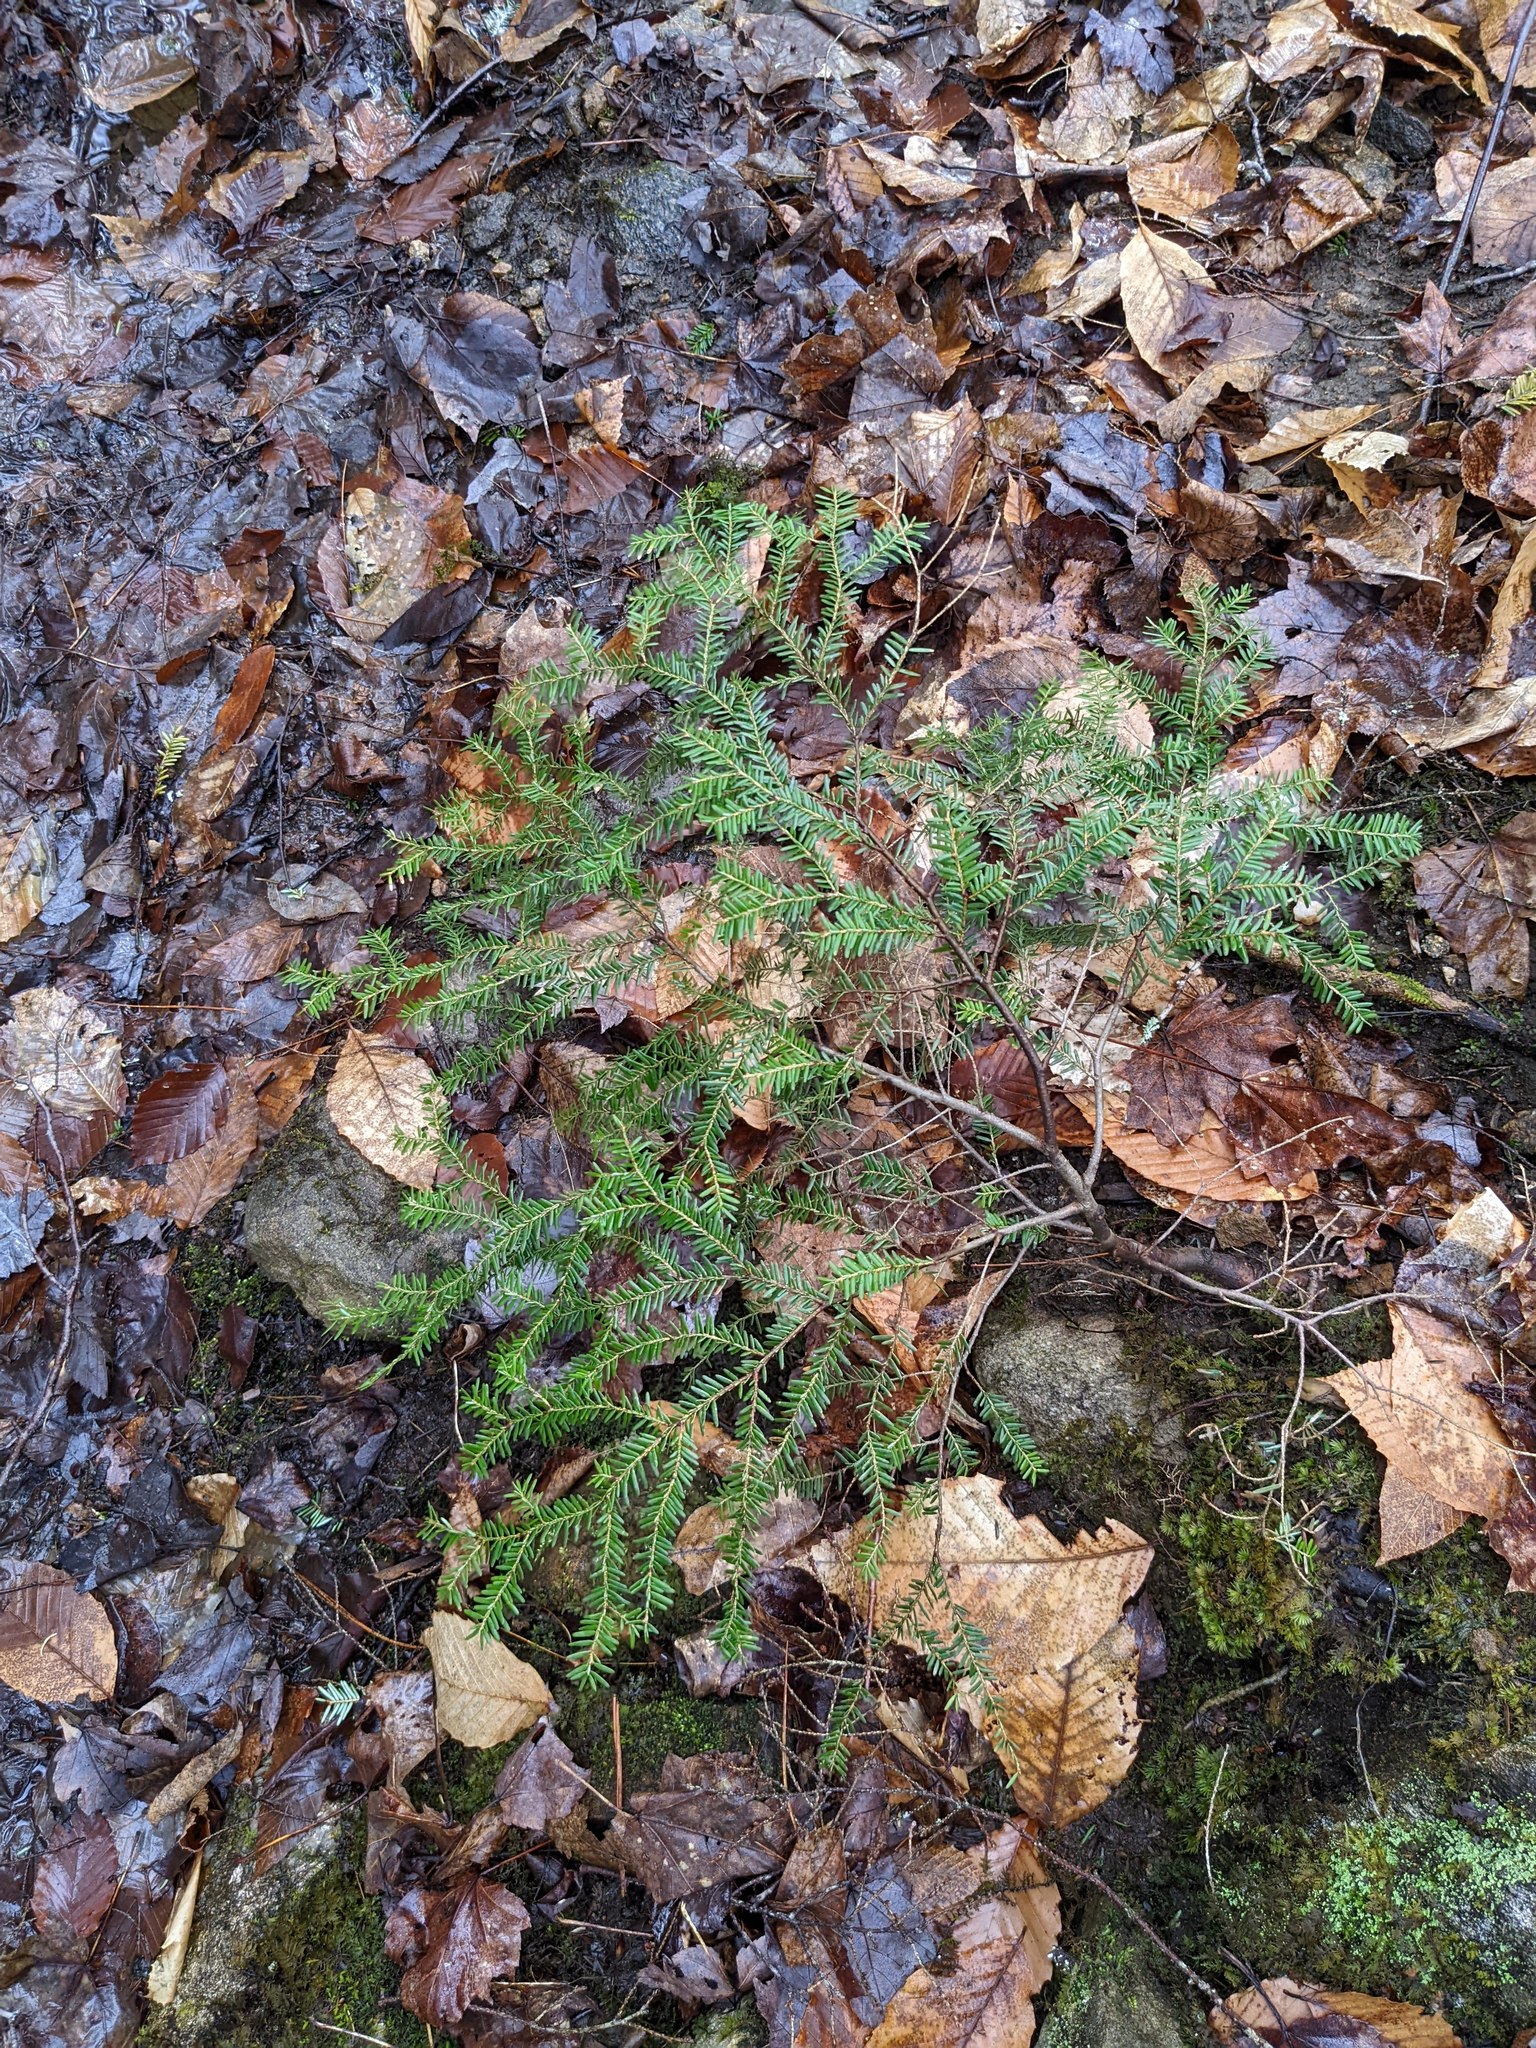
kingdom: Plantae
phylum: Tracheophyta
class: Magnoliopsida
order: Fagales
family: Fagaceae
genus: Fagus
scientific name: Fagus grandifolia
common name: American beech
